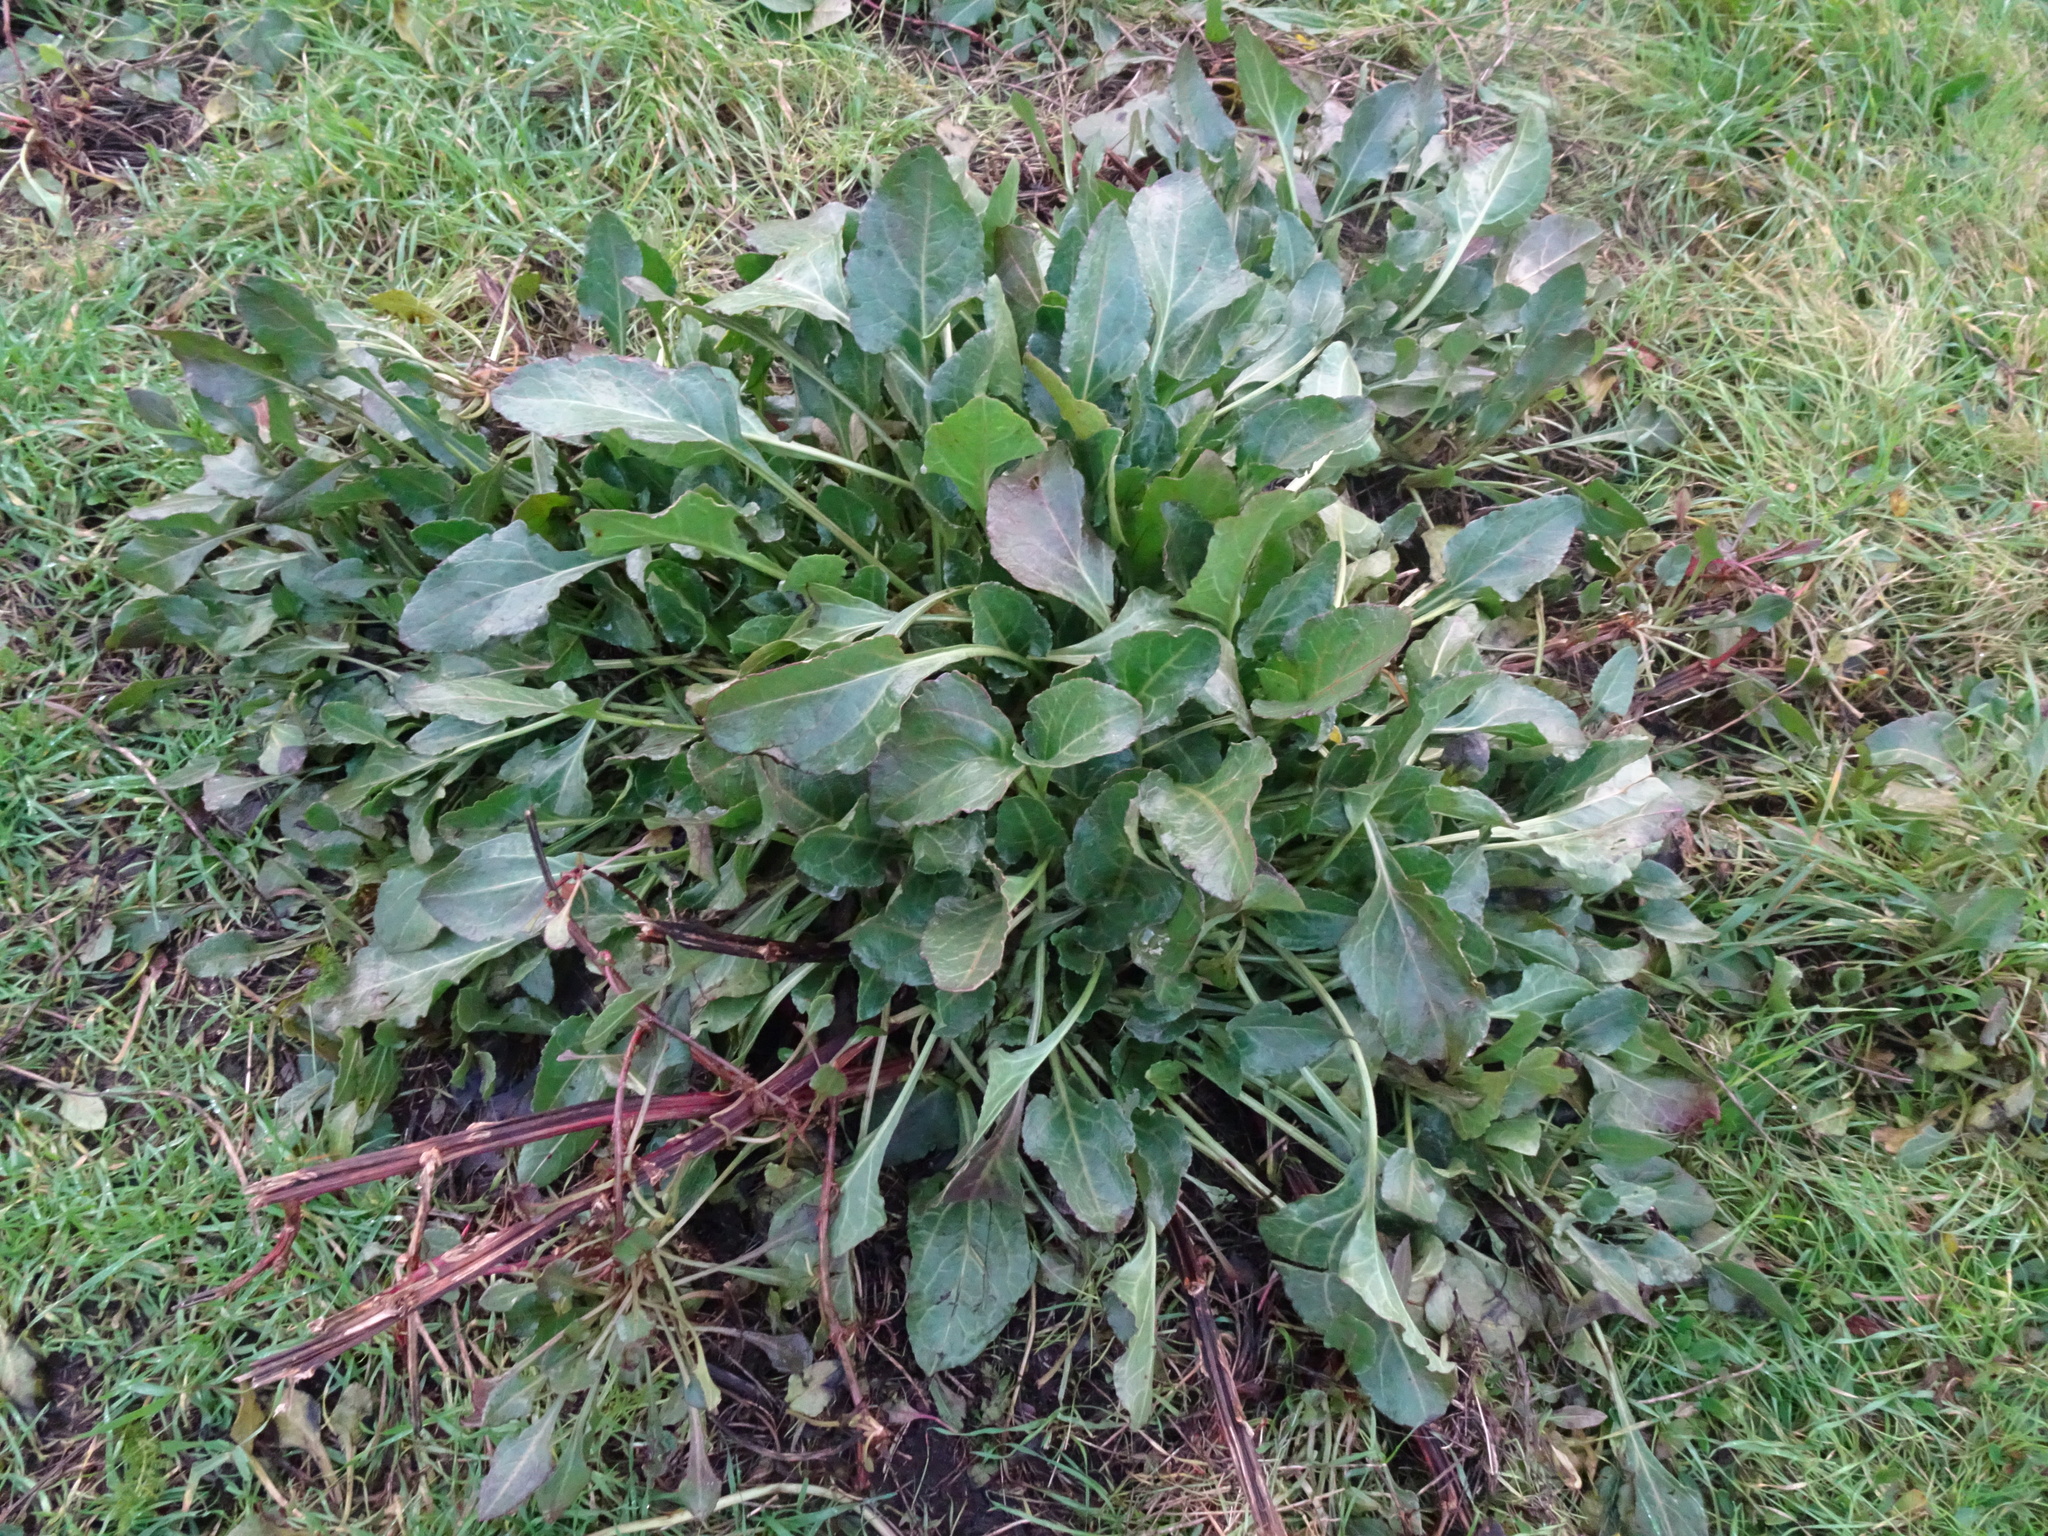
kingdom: Plantae
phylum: Tracheophyta
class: Magnoliopsida
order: Caryophyllales
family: Amaranthaceae
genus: Beta
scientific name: Beta vulgaris
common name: Beet
